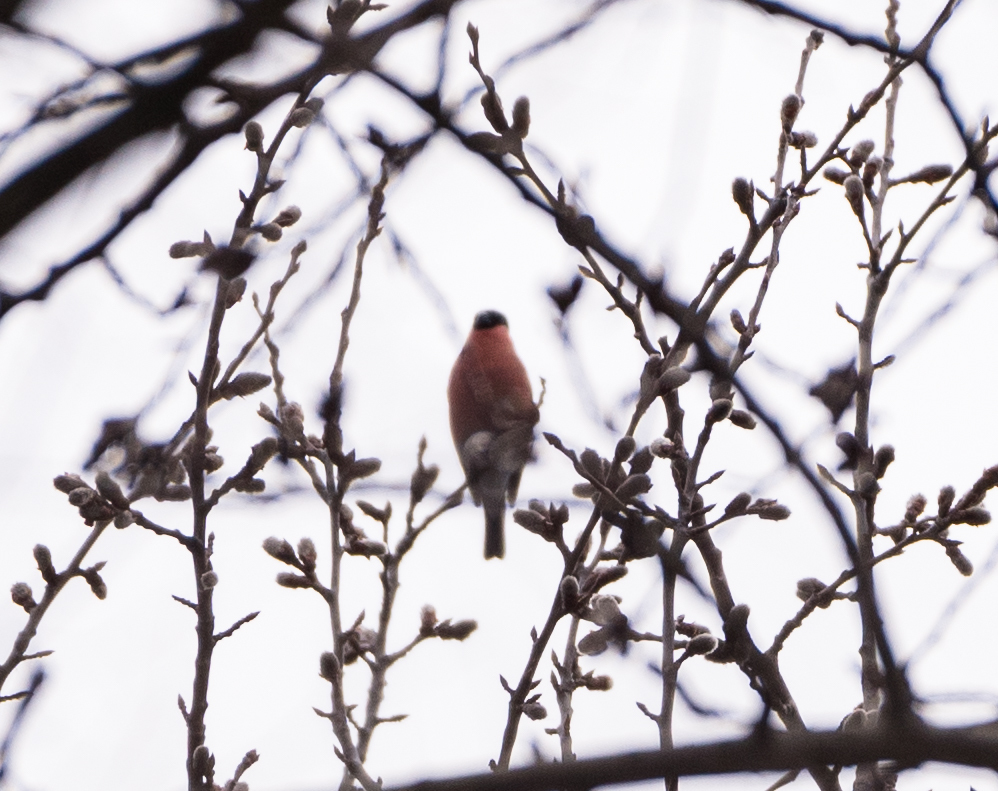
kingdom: Animalia
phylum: Chordata
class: Aves
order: Passeriformes
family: Fringillidae
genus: Pyrrhula
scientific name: Pyrrhula pyrrhula
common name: Eurasian bullfinch
